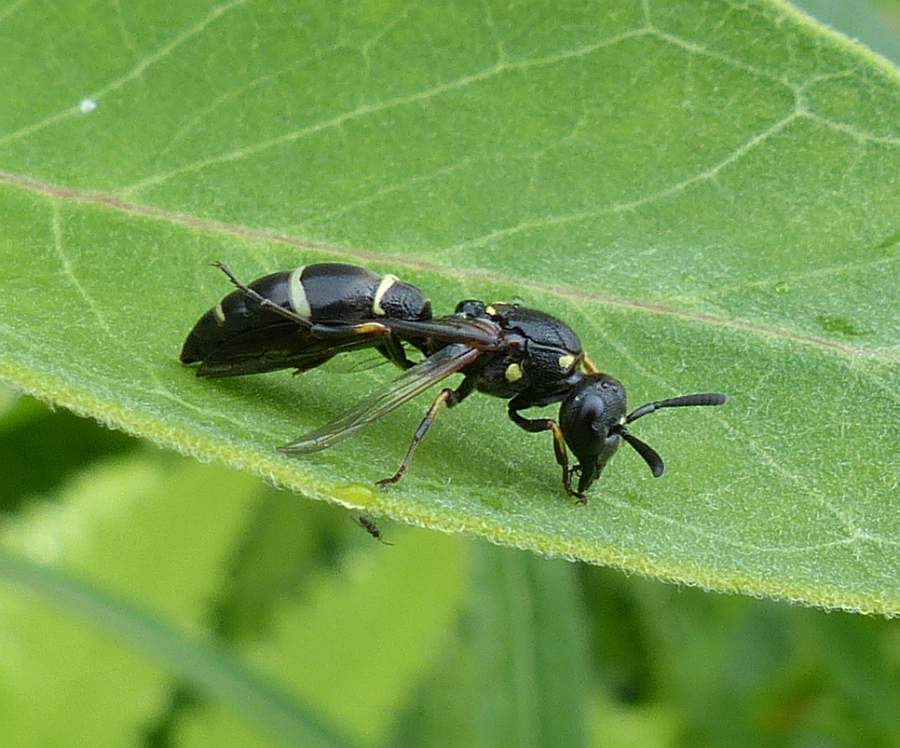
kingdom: Animalia
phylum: Arthropoda
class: Insecta
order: Hymenoptera
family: Eumenidae
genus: Symmorphus
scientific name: Symmorphus
